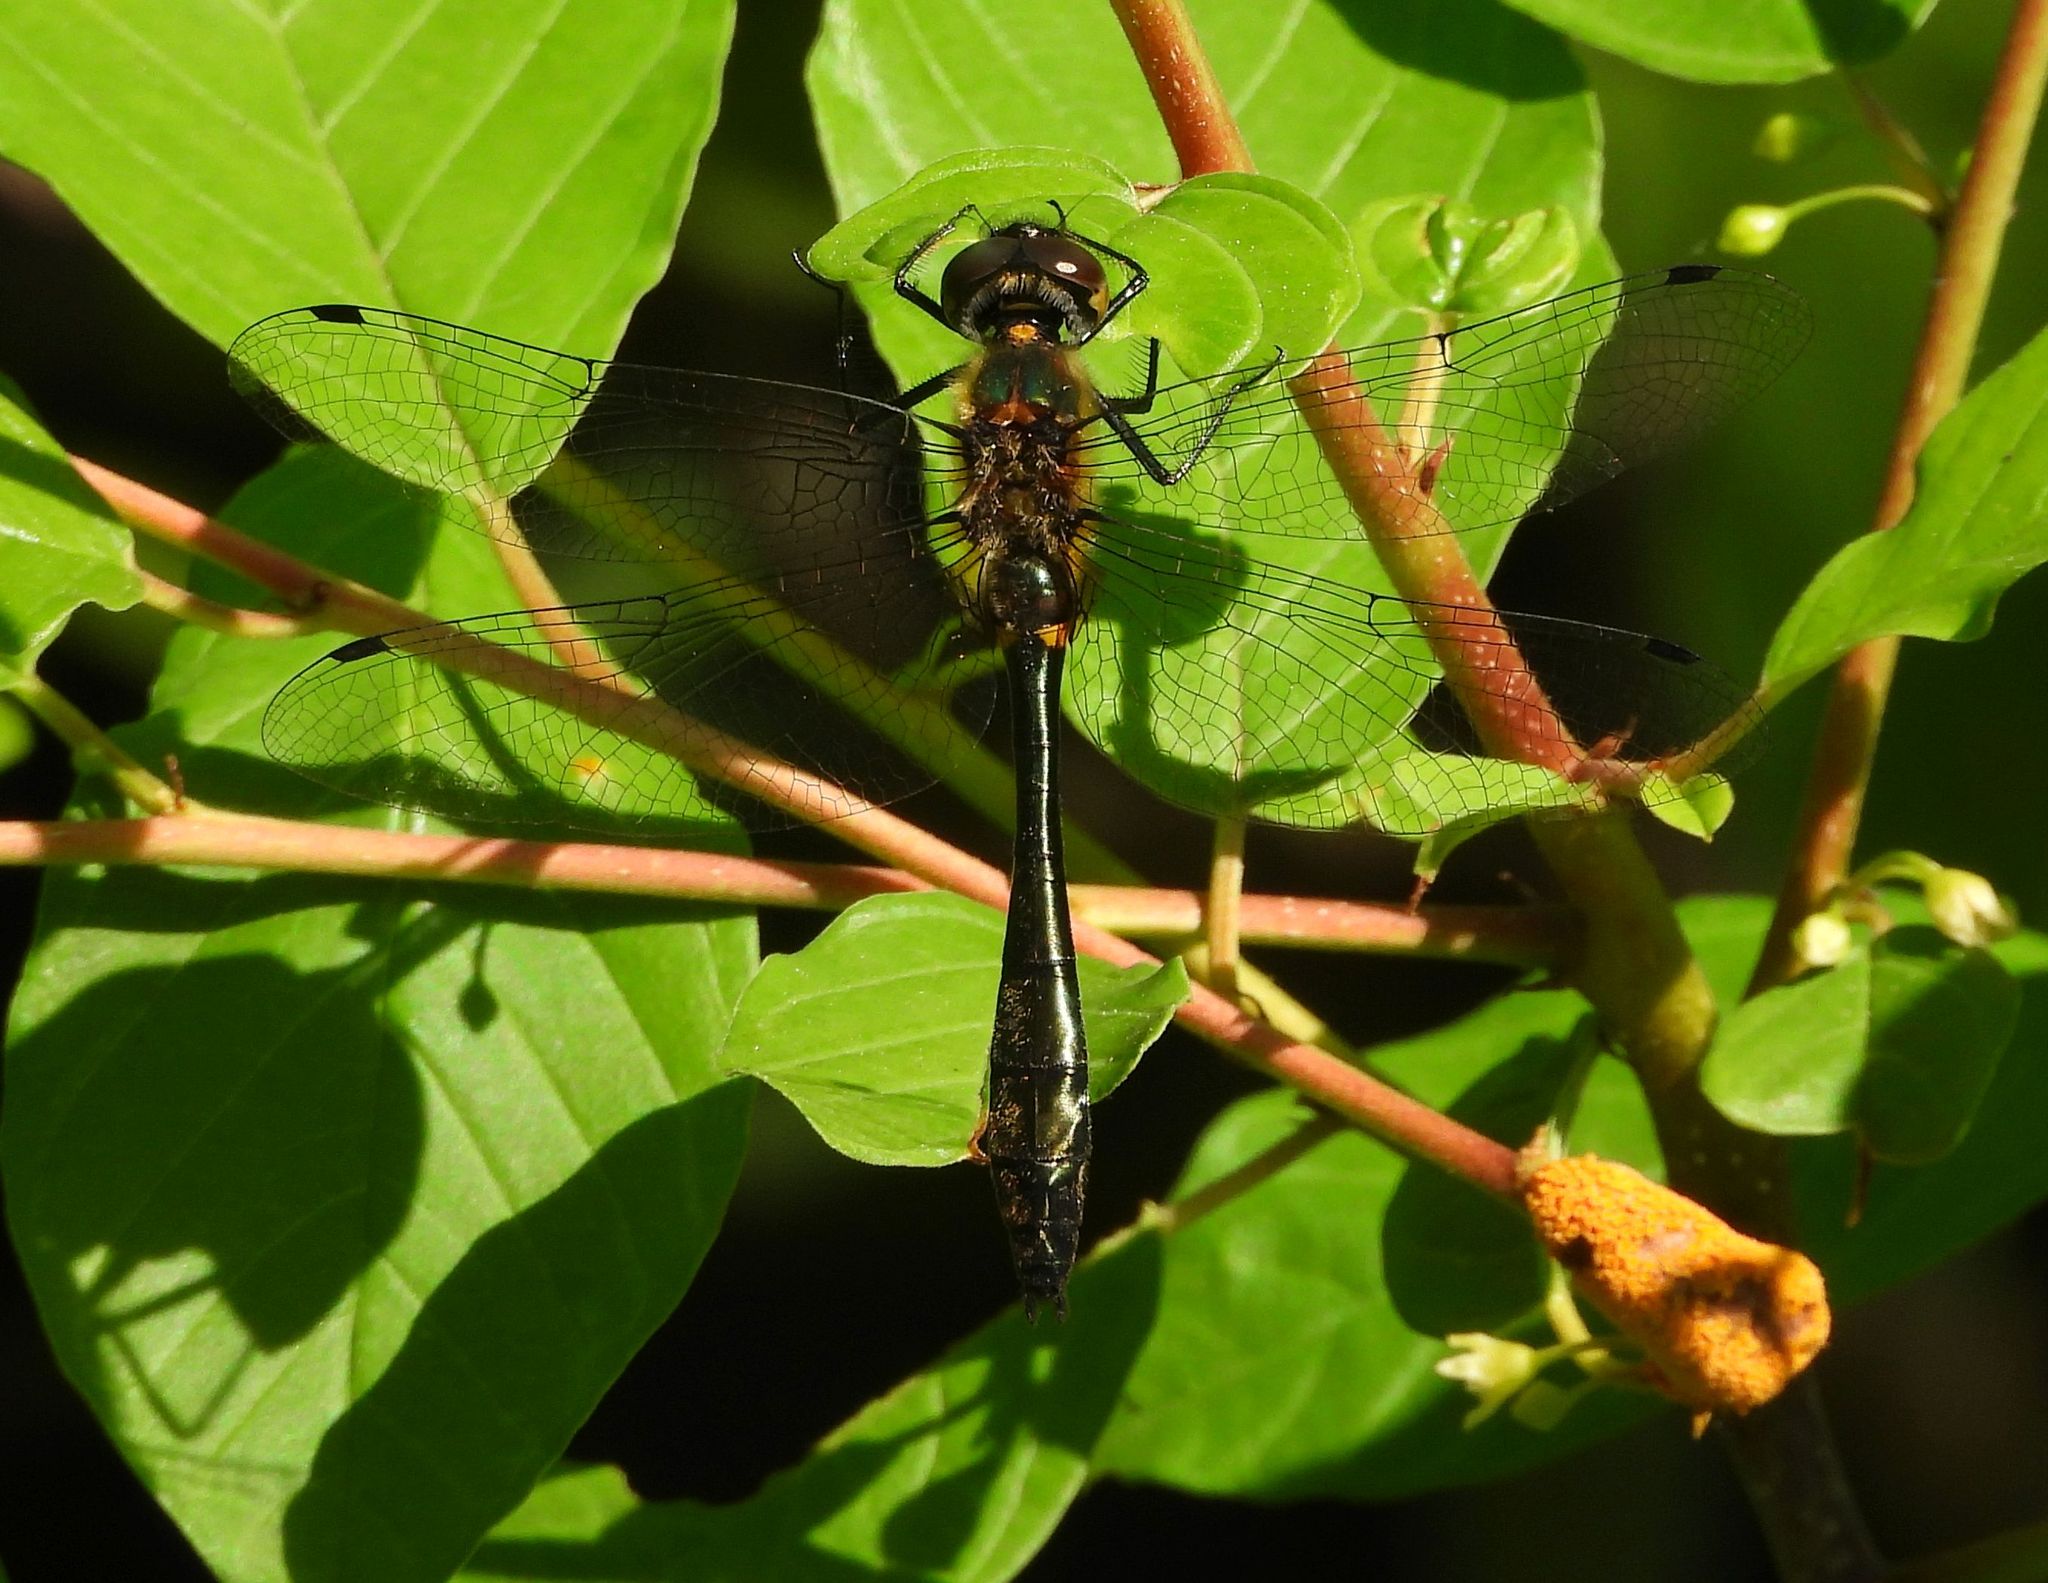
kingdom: Animalia
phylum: Arthropoda
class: Insecta
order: Odonata
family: Corduliidae
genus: Dorocordulia
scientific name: Dorocordulia libera
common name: Racket-tailed emerald
